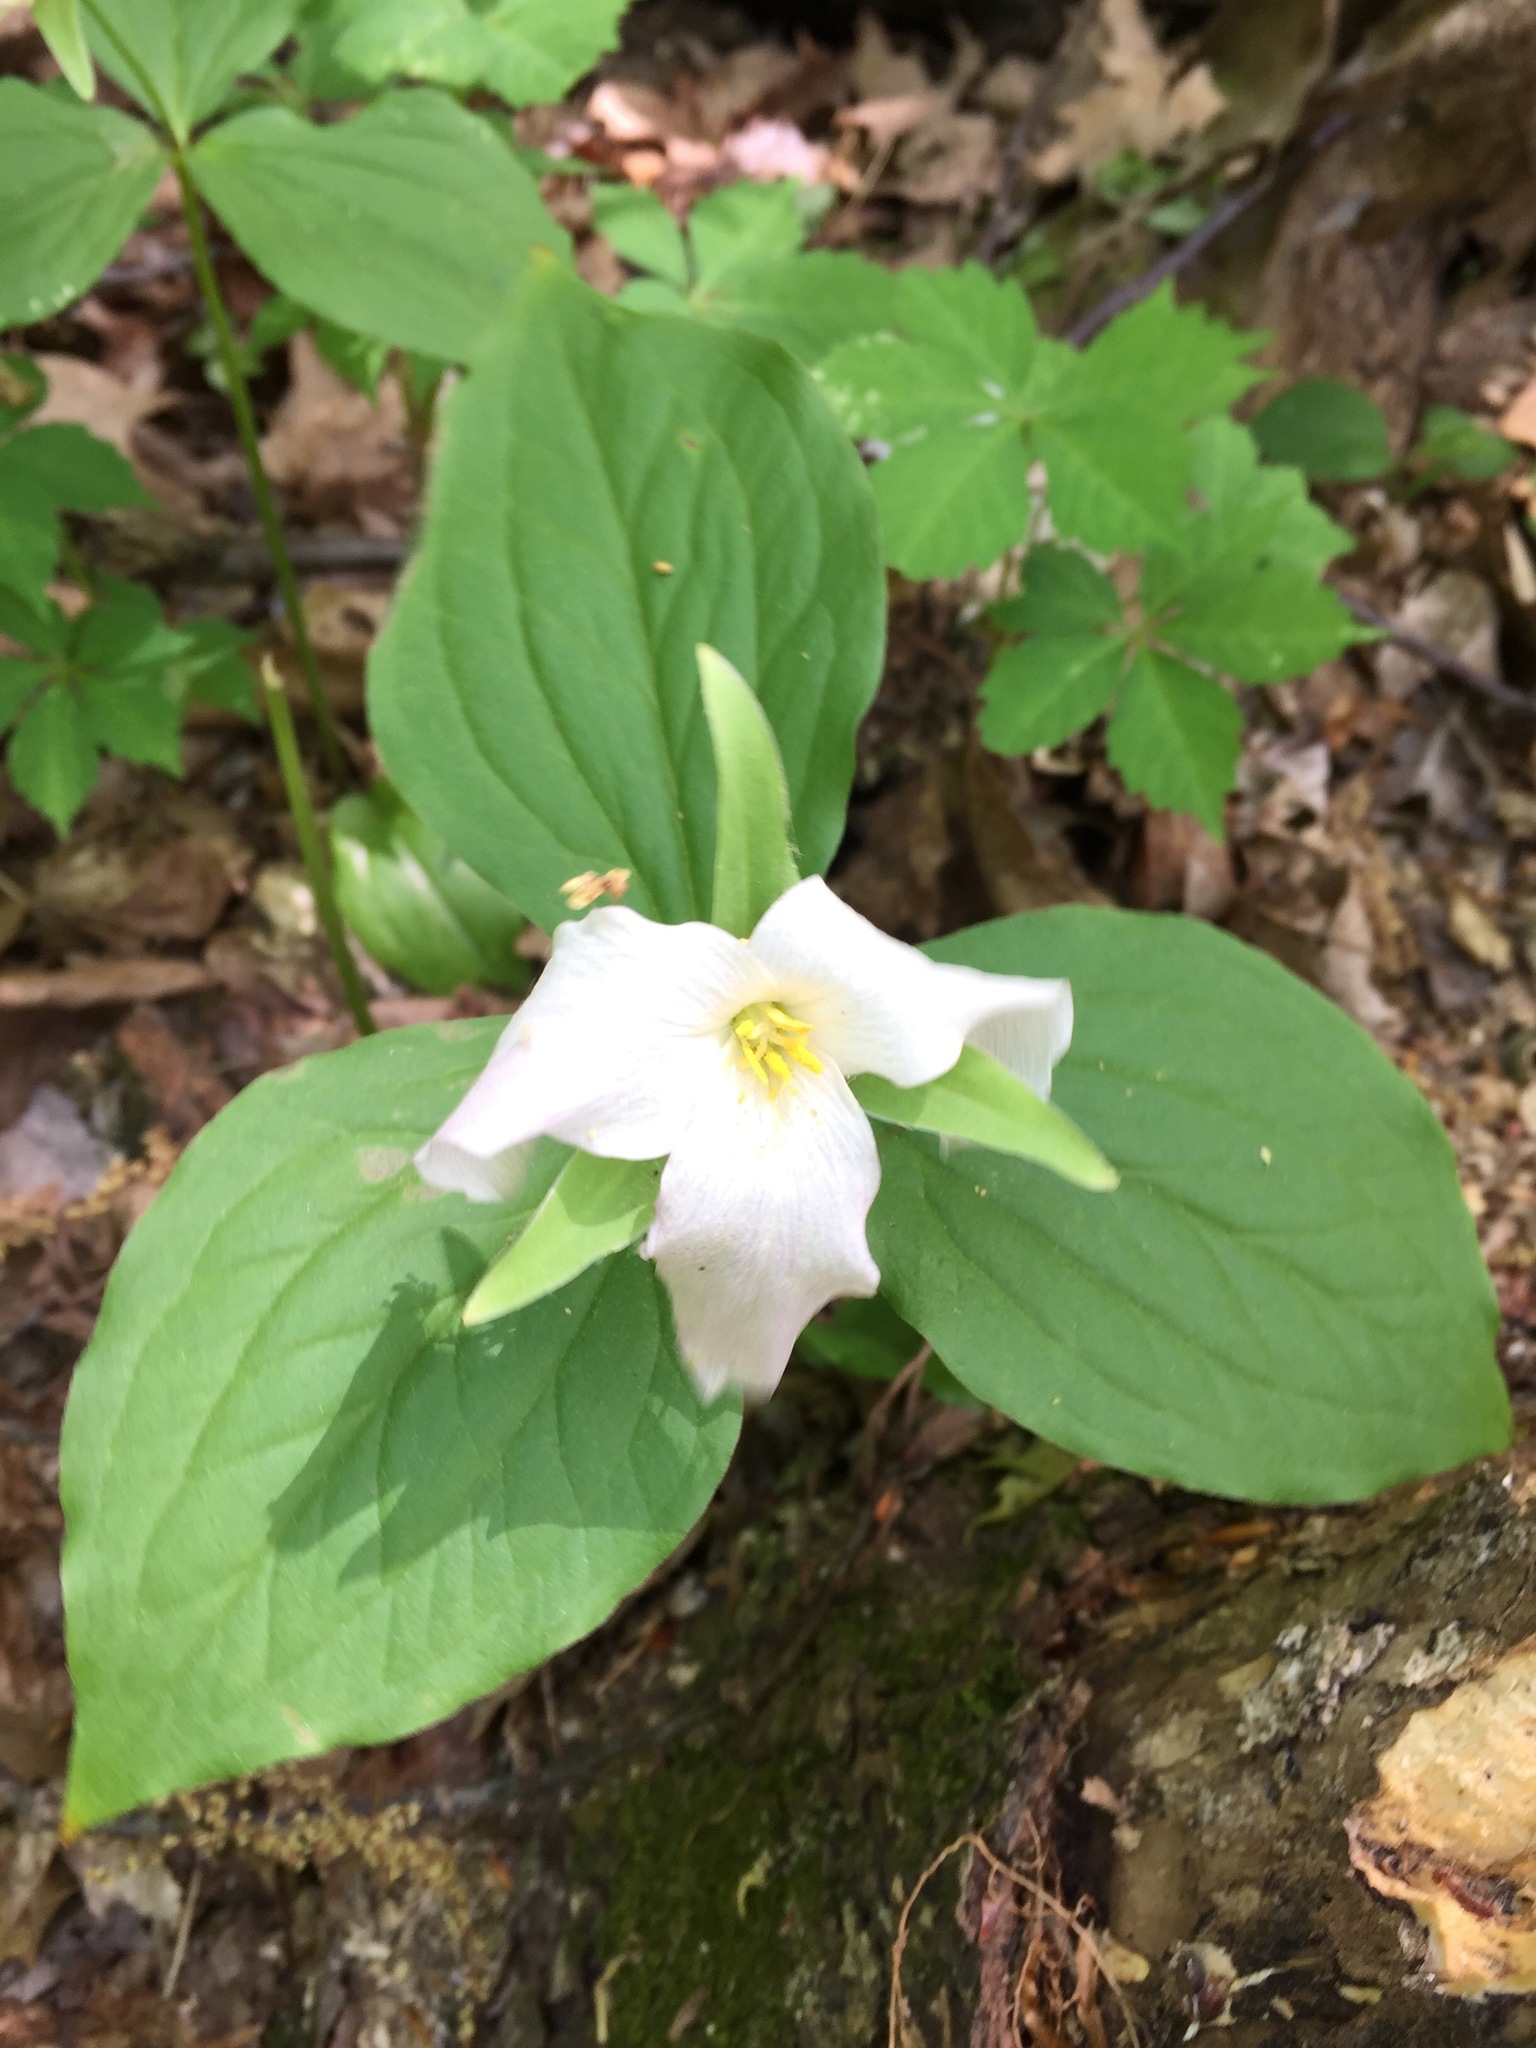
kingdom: Plantae
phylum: Tracheophyta
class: Liliopsida
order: Liliales
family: Melanthiaceae
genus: Trillium
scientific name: Trillium grandiflorum
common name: Great white trillium
